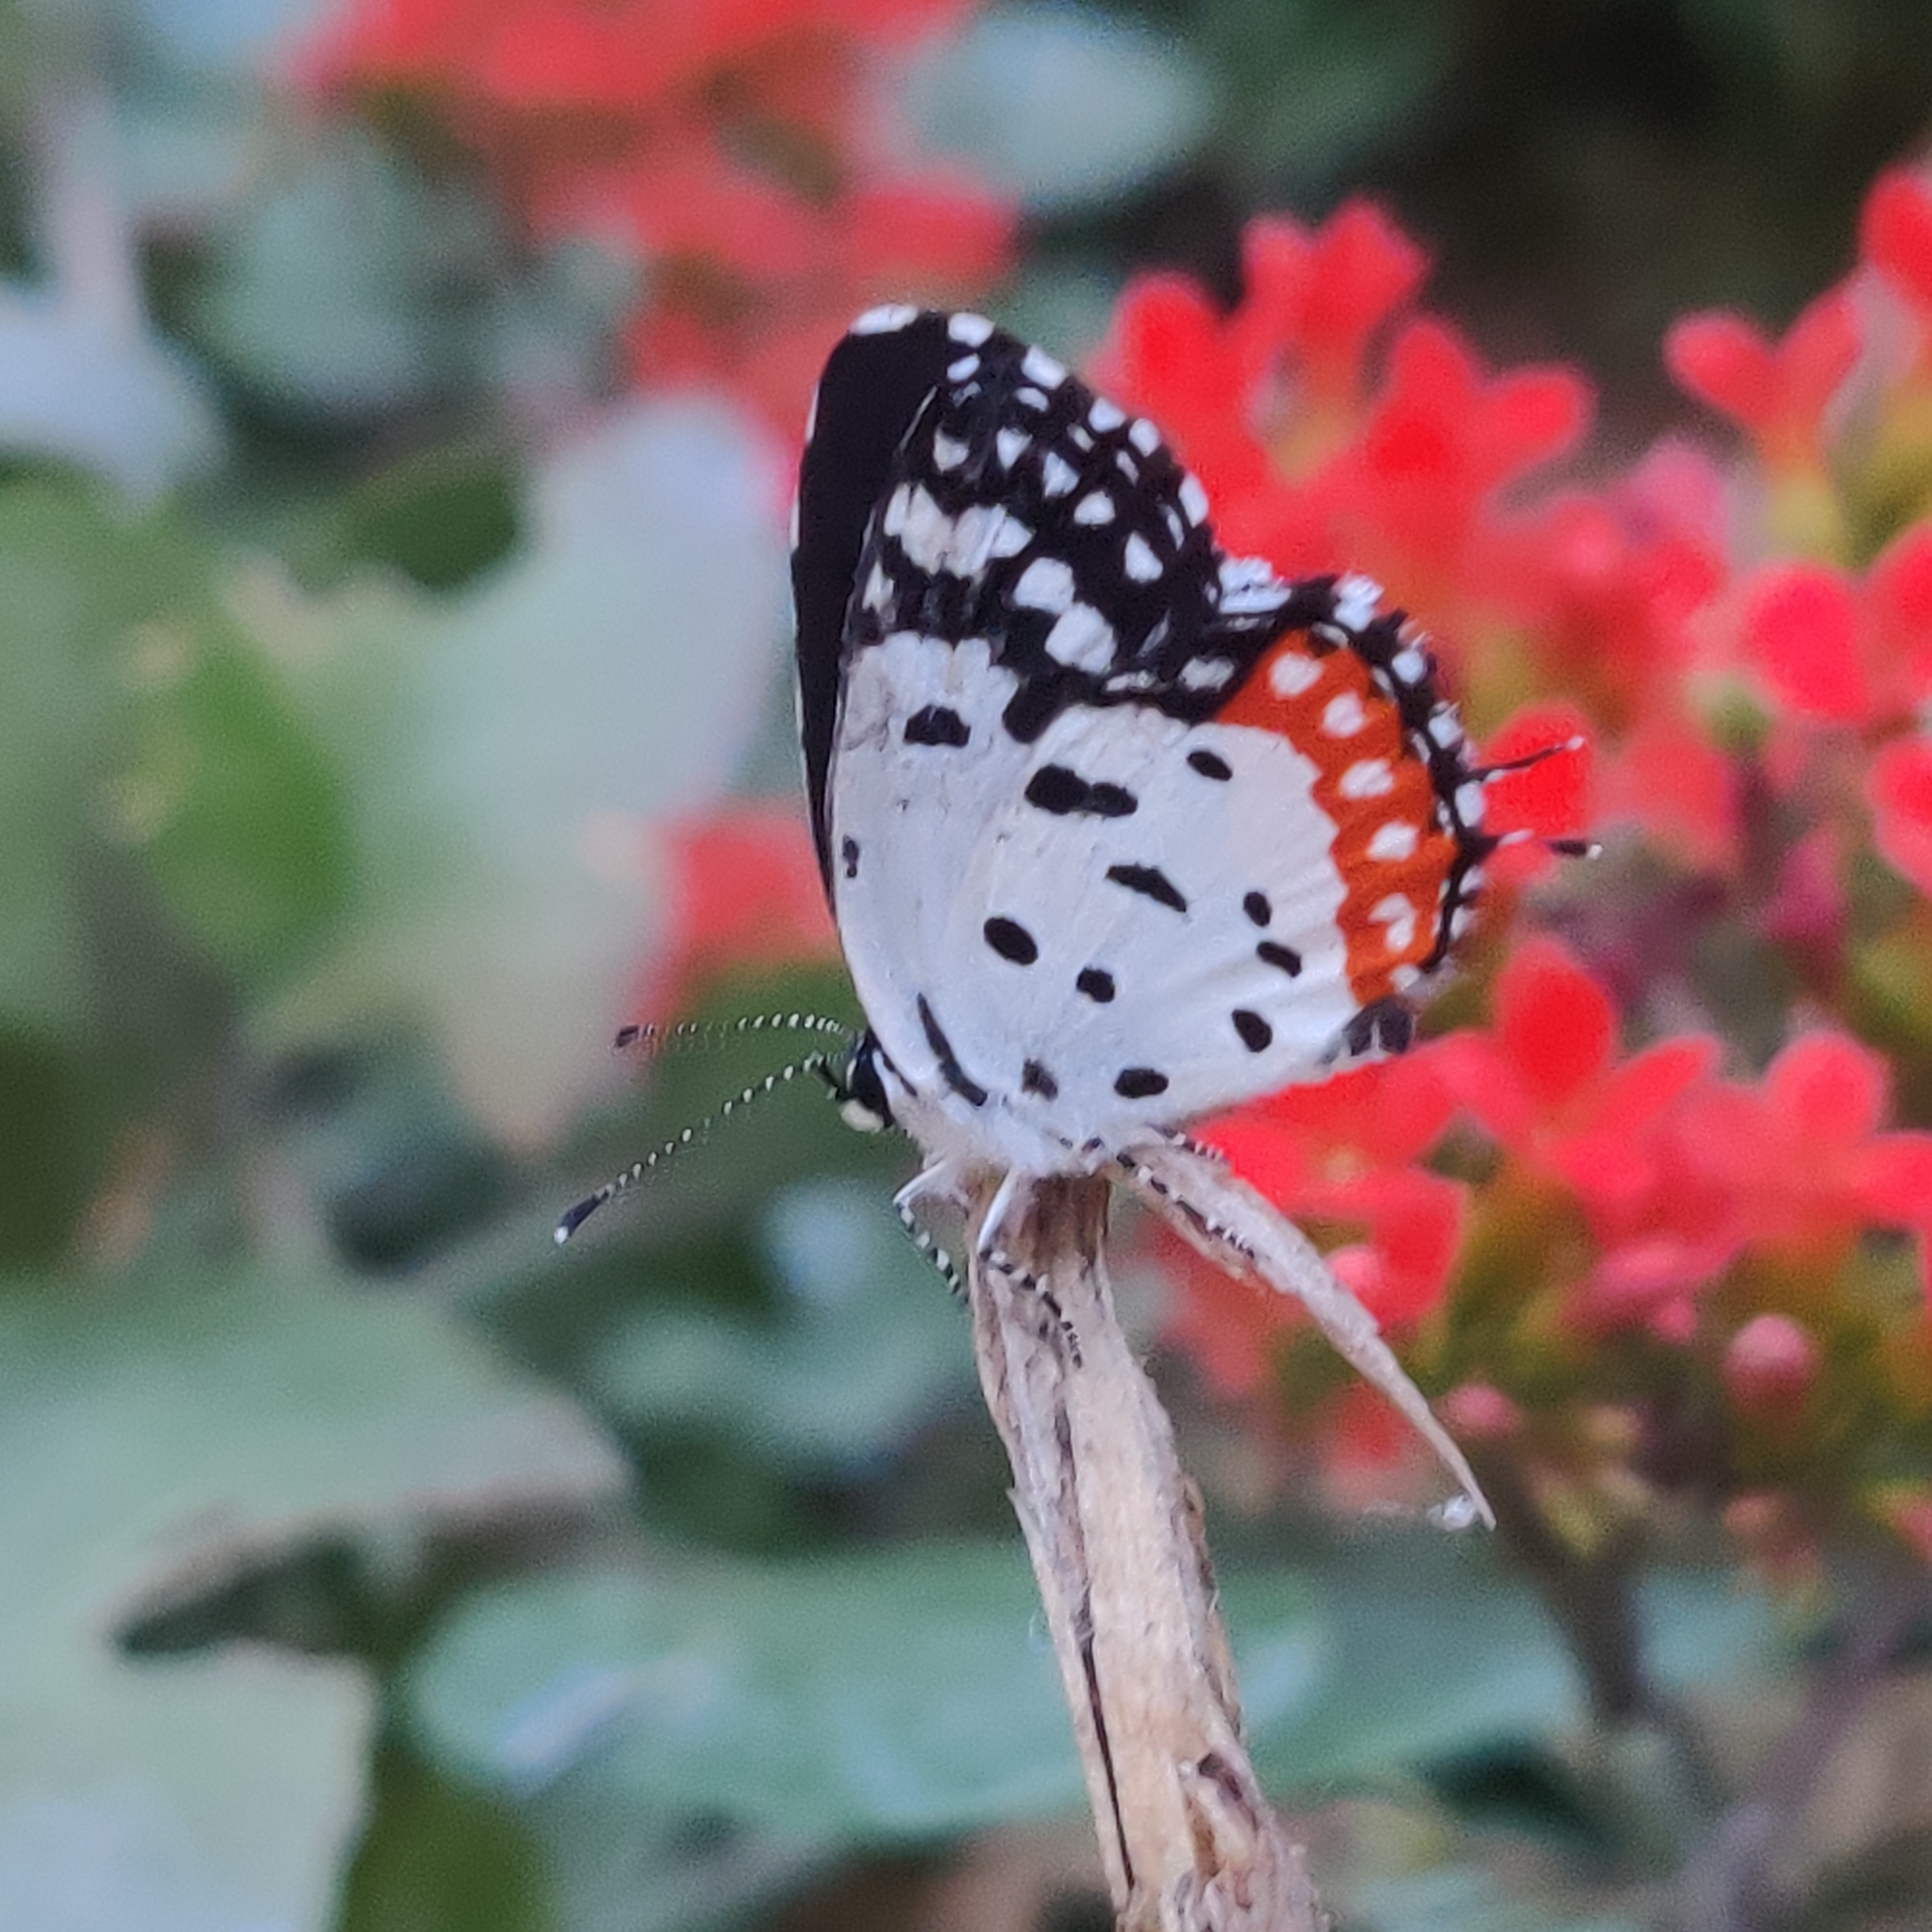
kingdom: Animalia
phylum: Arthropoda
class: Insecta
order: Lepidoptera
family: Lycaenidae
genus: Talicada
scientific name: Talicada nyseus
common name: Red pierrot
